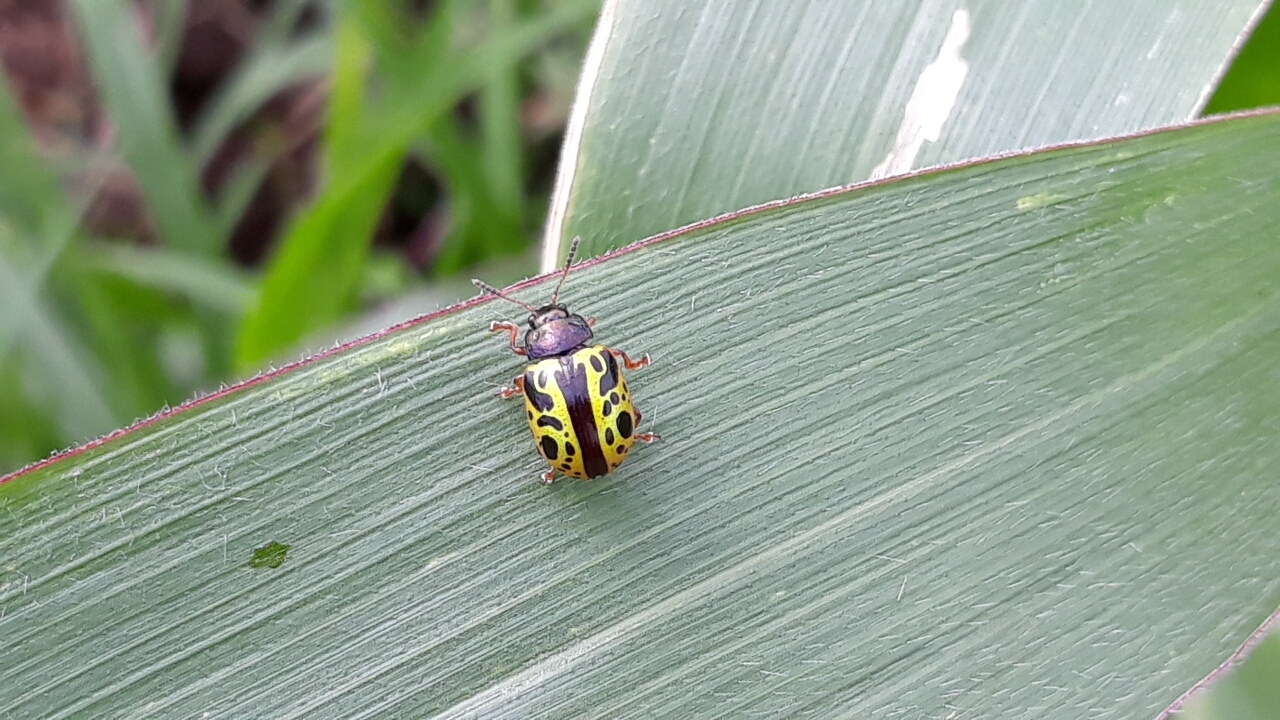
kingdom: Animalia
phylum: Arthropoda
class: Insecta
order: Coleoptera
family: Chrysomelidae
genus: Calligrapha
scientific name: Calligrapha fulvipes
